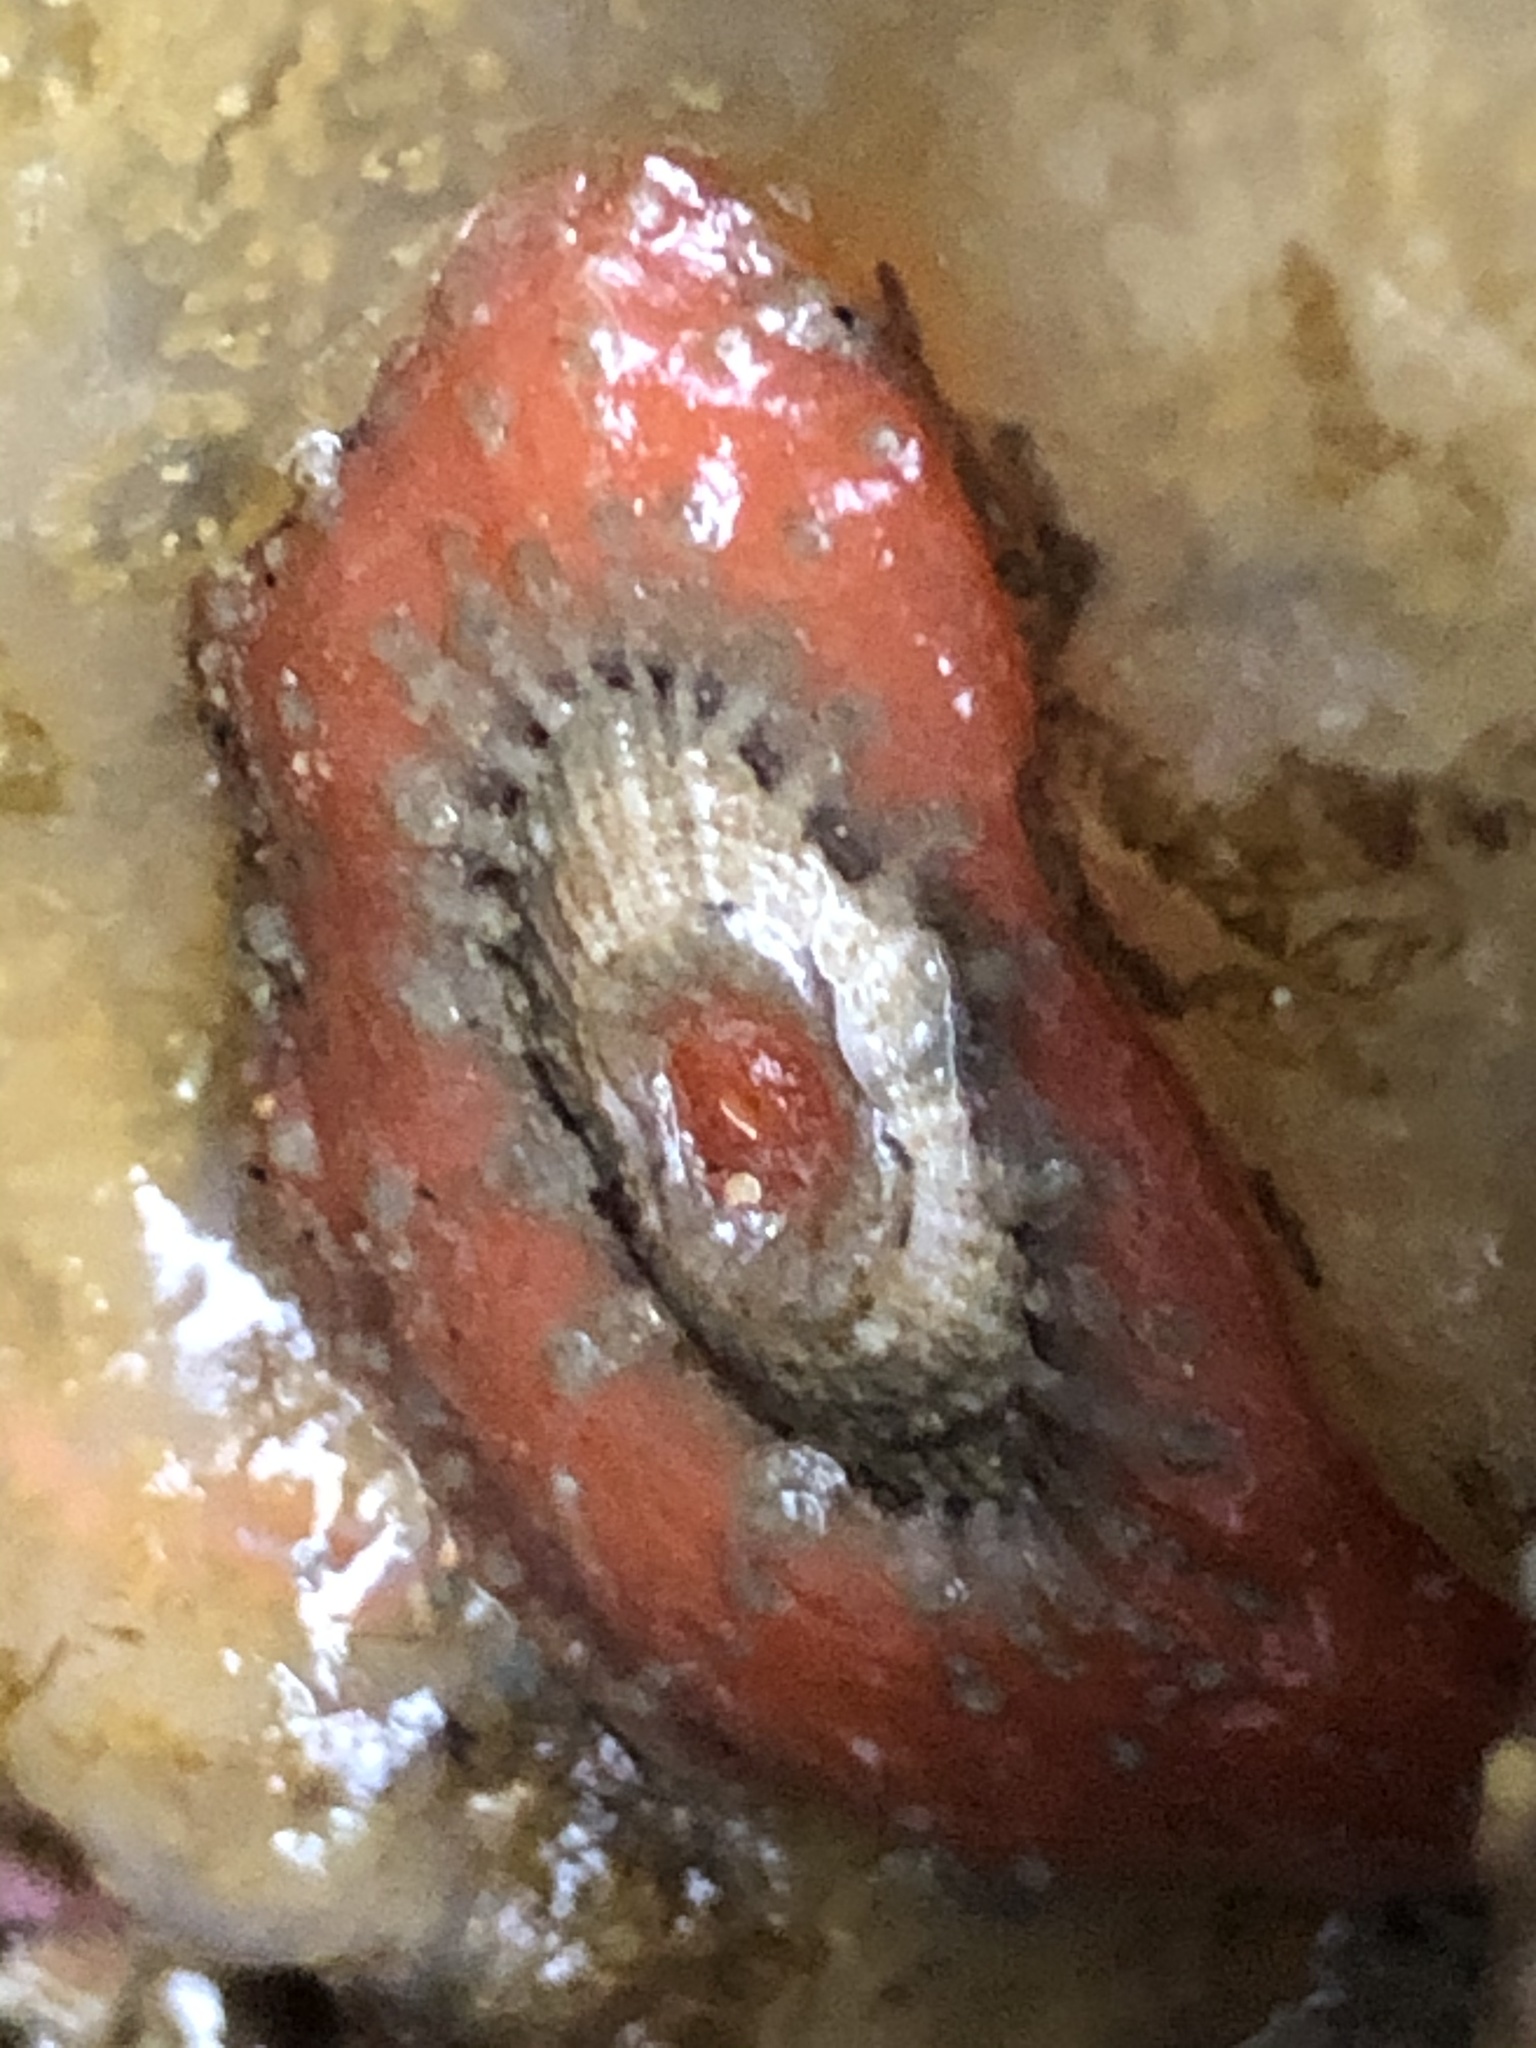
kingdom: Animalia
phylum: Mollusca
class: Gastropoda
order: Lepetellida
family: Fissurellidae
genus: Fissurellidea
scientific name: Fissurellidea bimaculata
